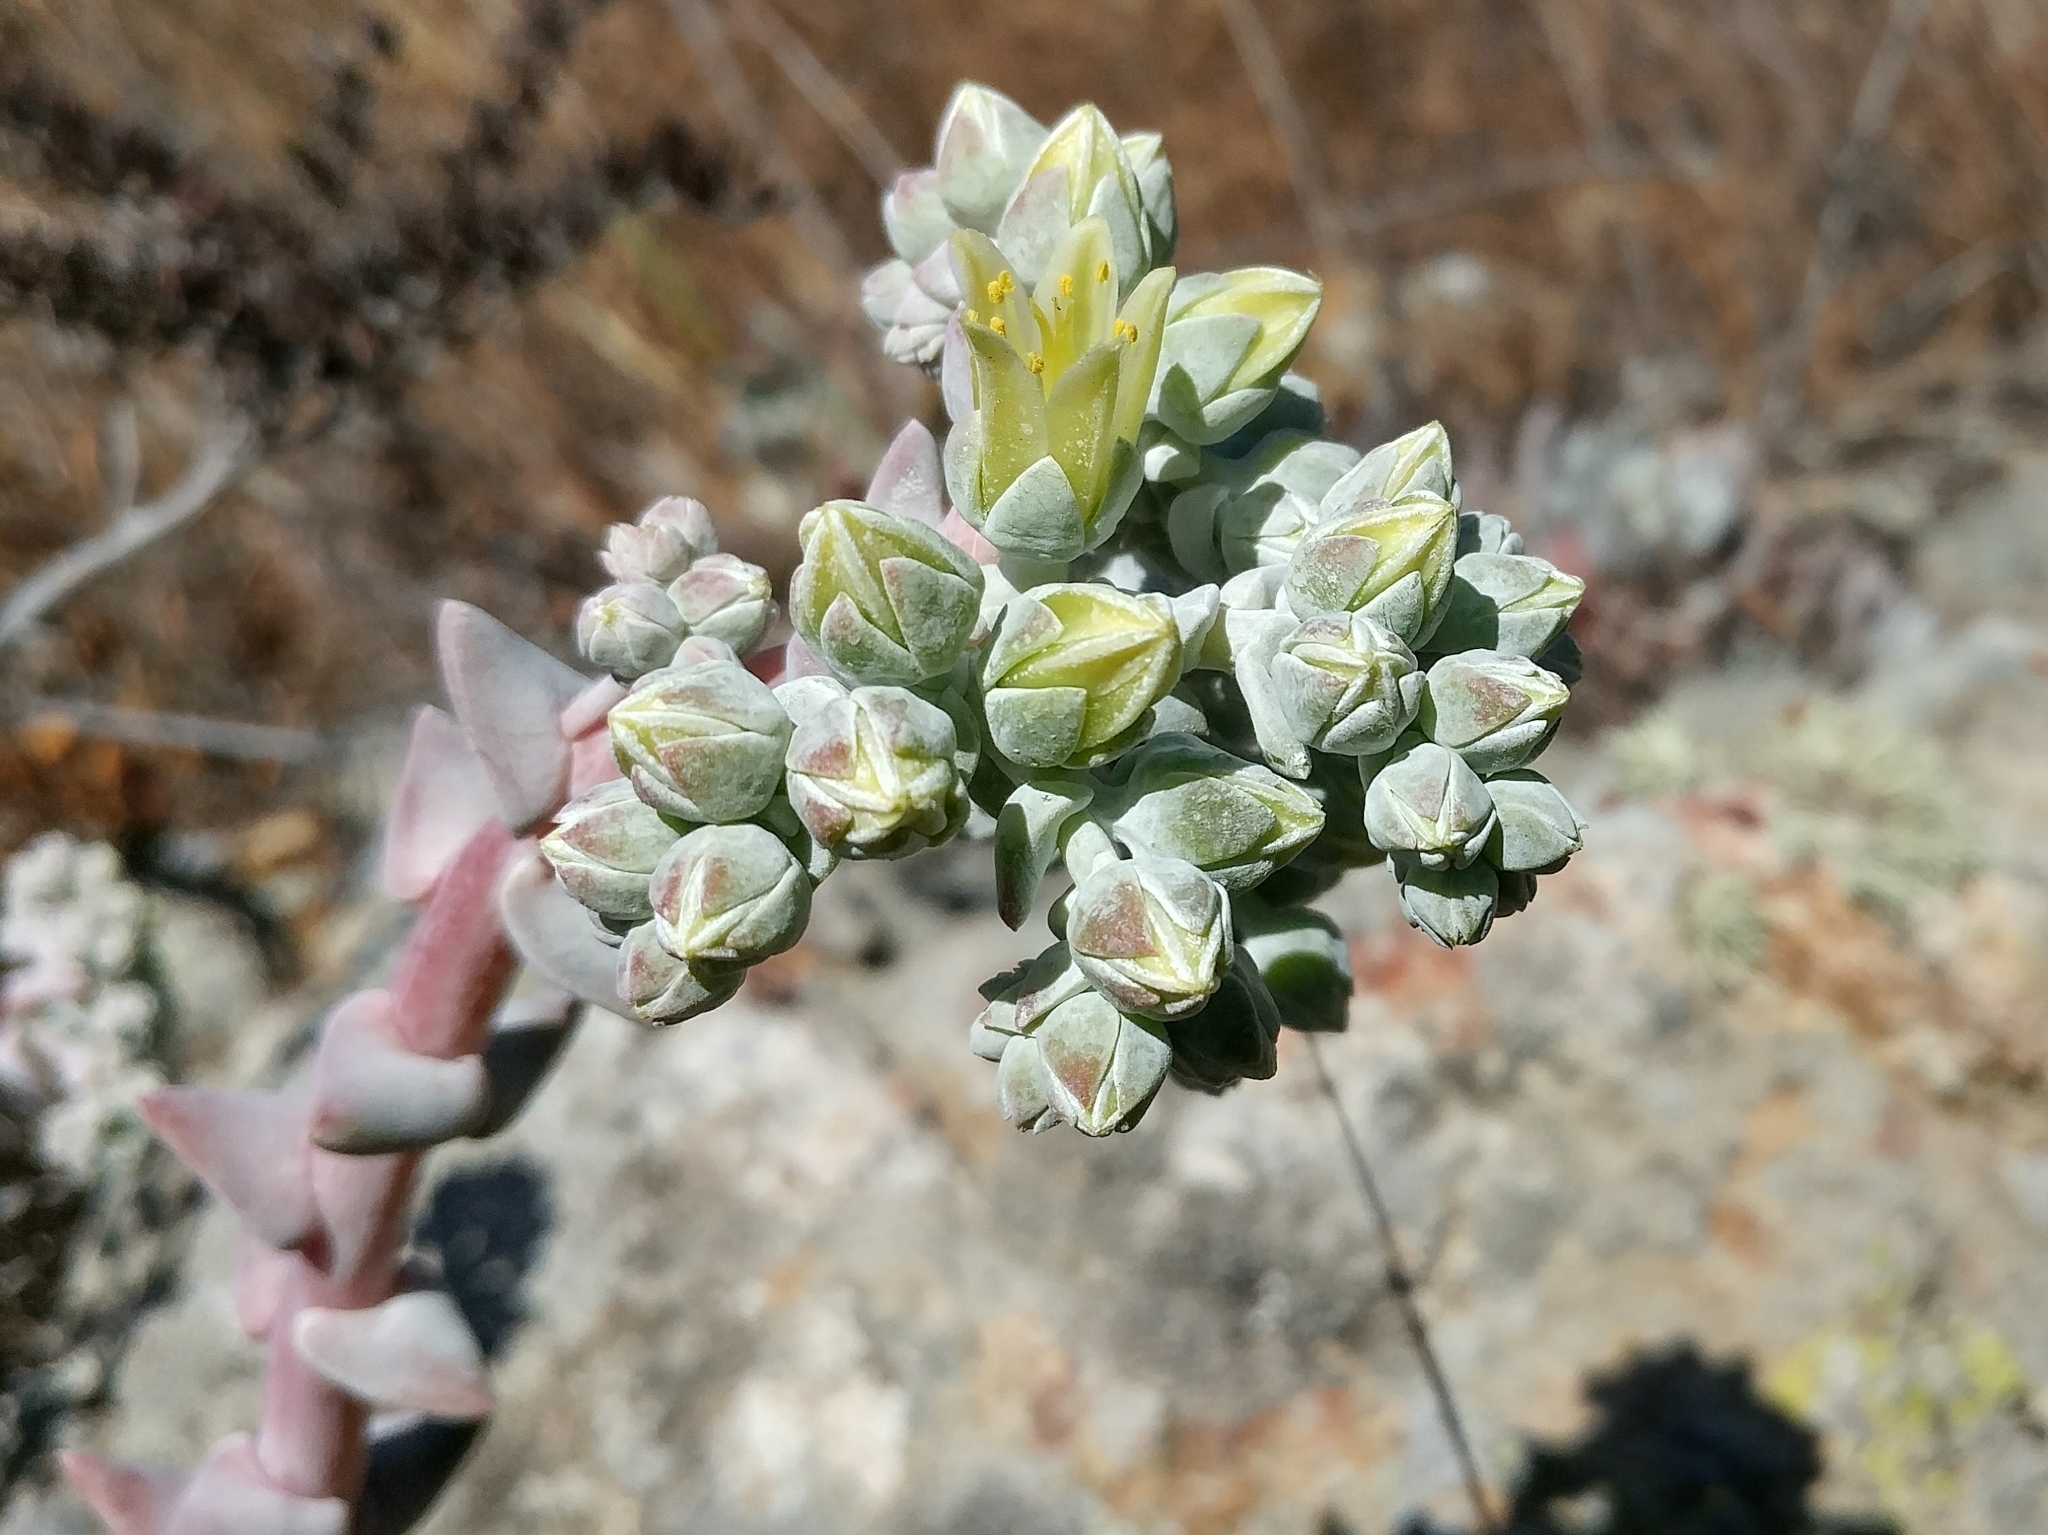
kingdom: Plantae
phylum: Tracheophyta
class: Magnoliopsida
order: Saxifragales
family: Crassulaceae
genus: Dudleya
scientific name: Dudleya greenei
